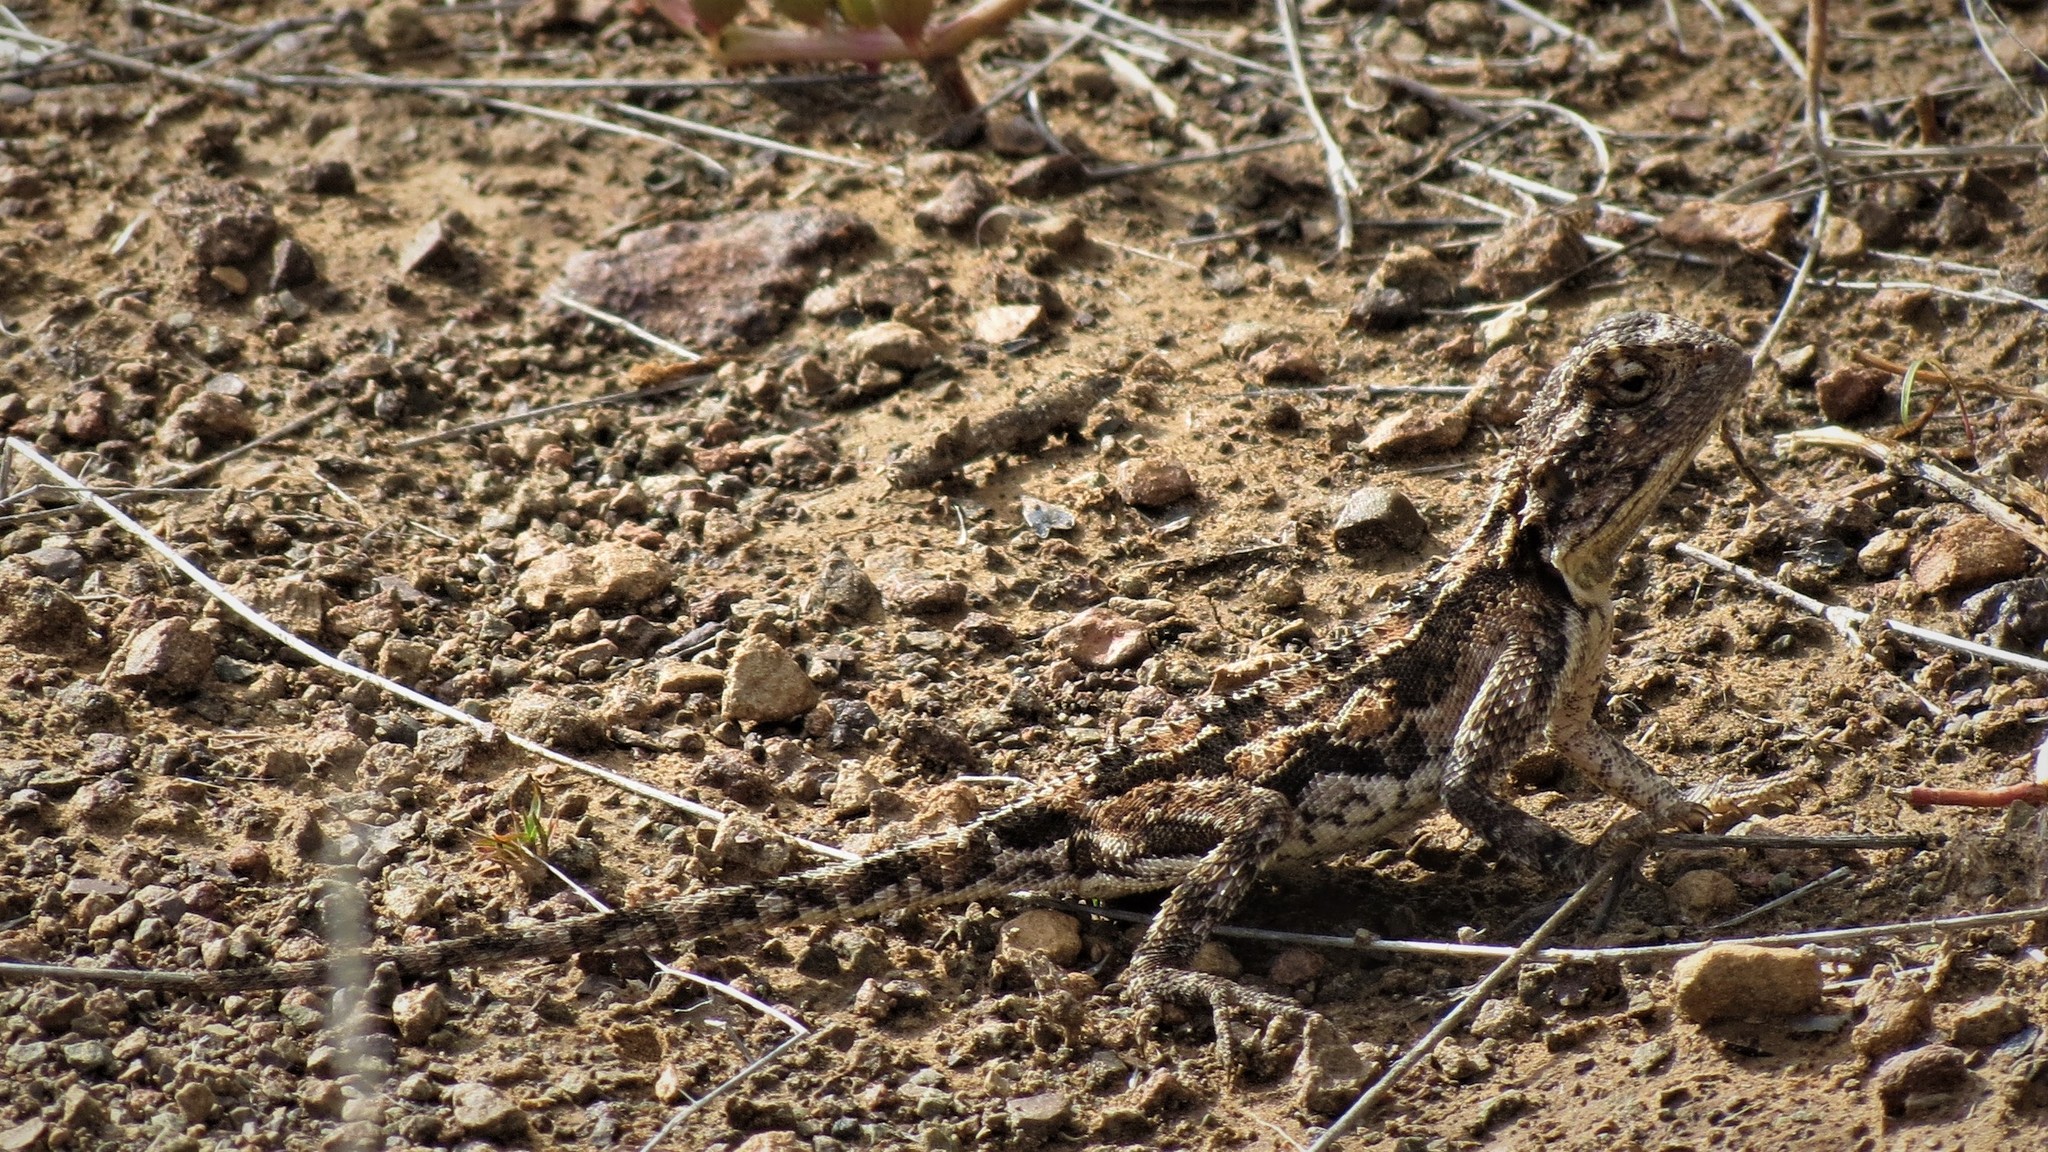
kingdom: Animalia
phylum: Chordata
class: Squamata
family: Agamidae
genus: Agama
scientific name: Agama aculeata
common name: Common ground agama
